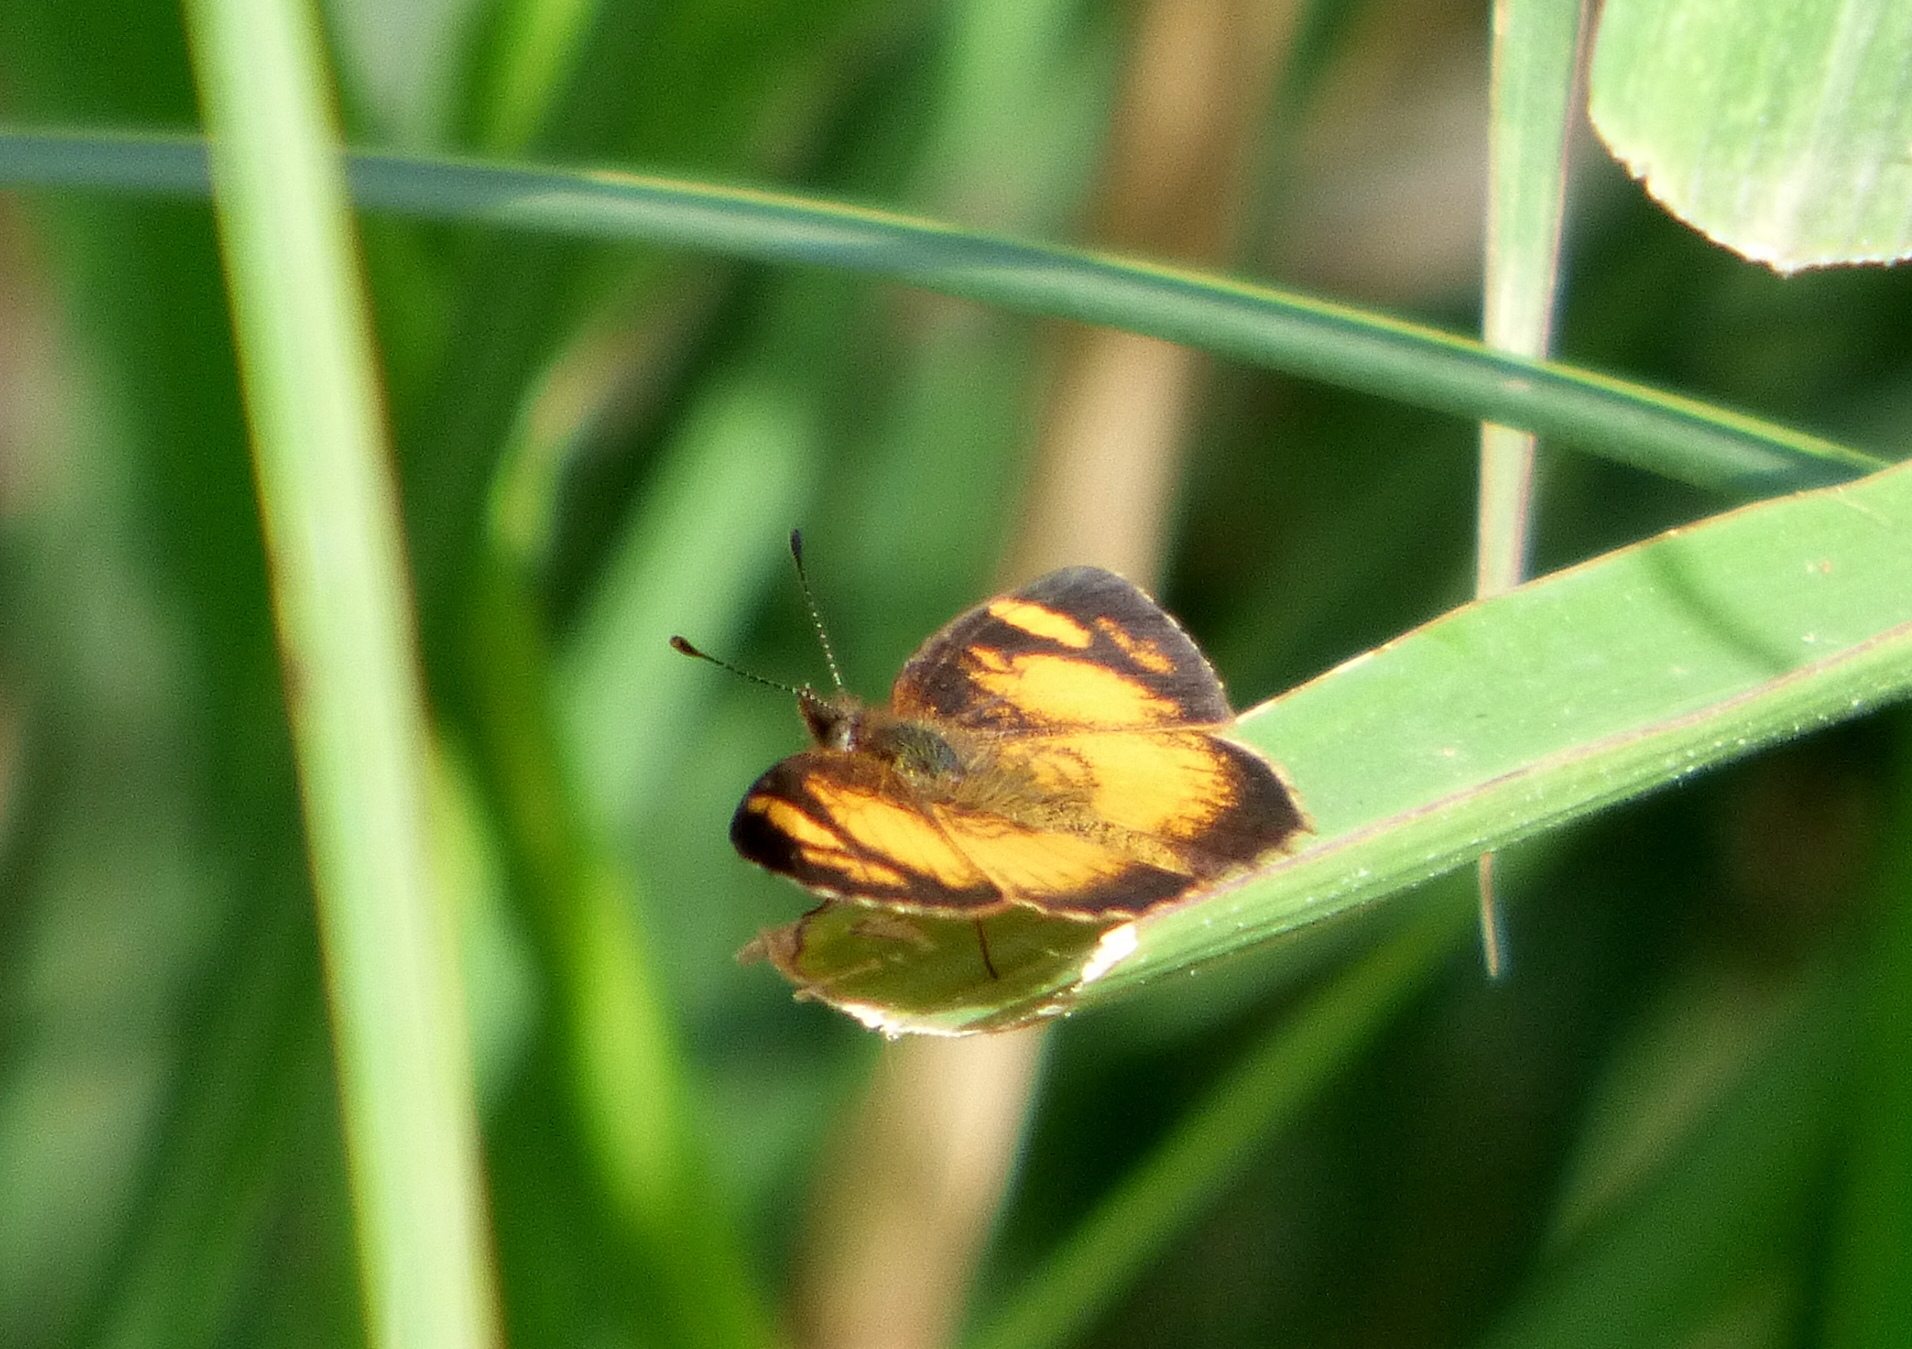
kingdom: Animalia
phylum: Arthropoda
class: Insecta
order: Lepidoptera
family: Nymphalidae
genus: Tegosa
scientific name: Tegosa claudina
